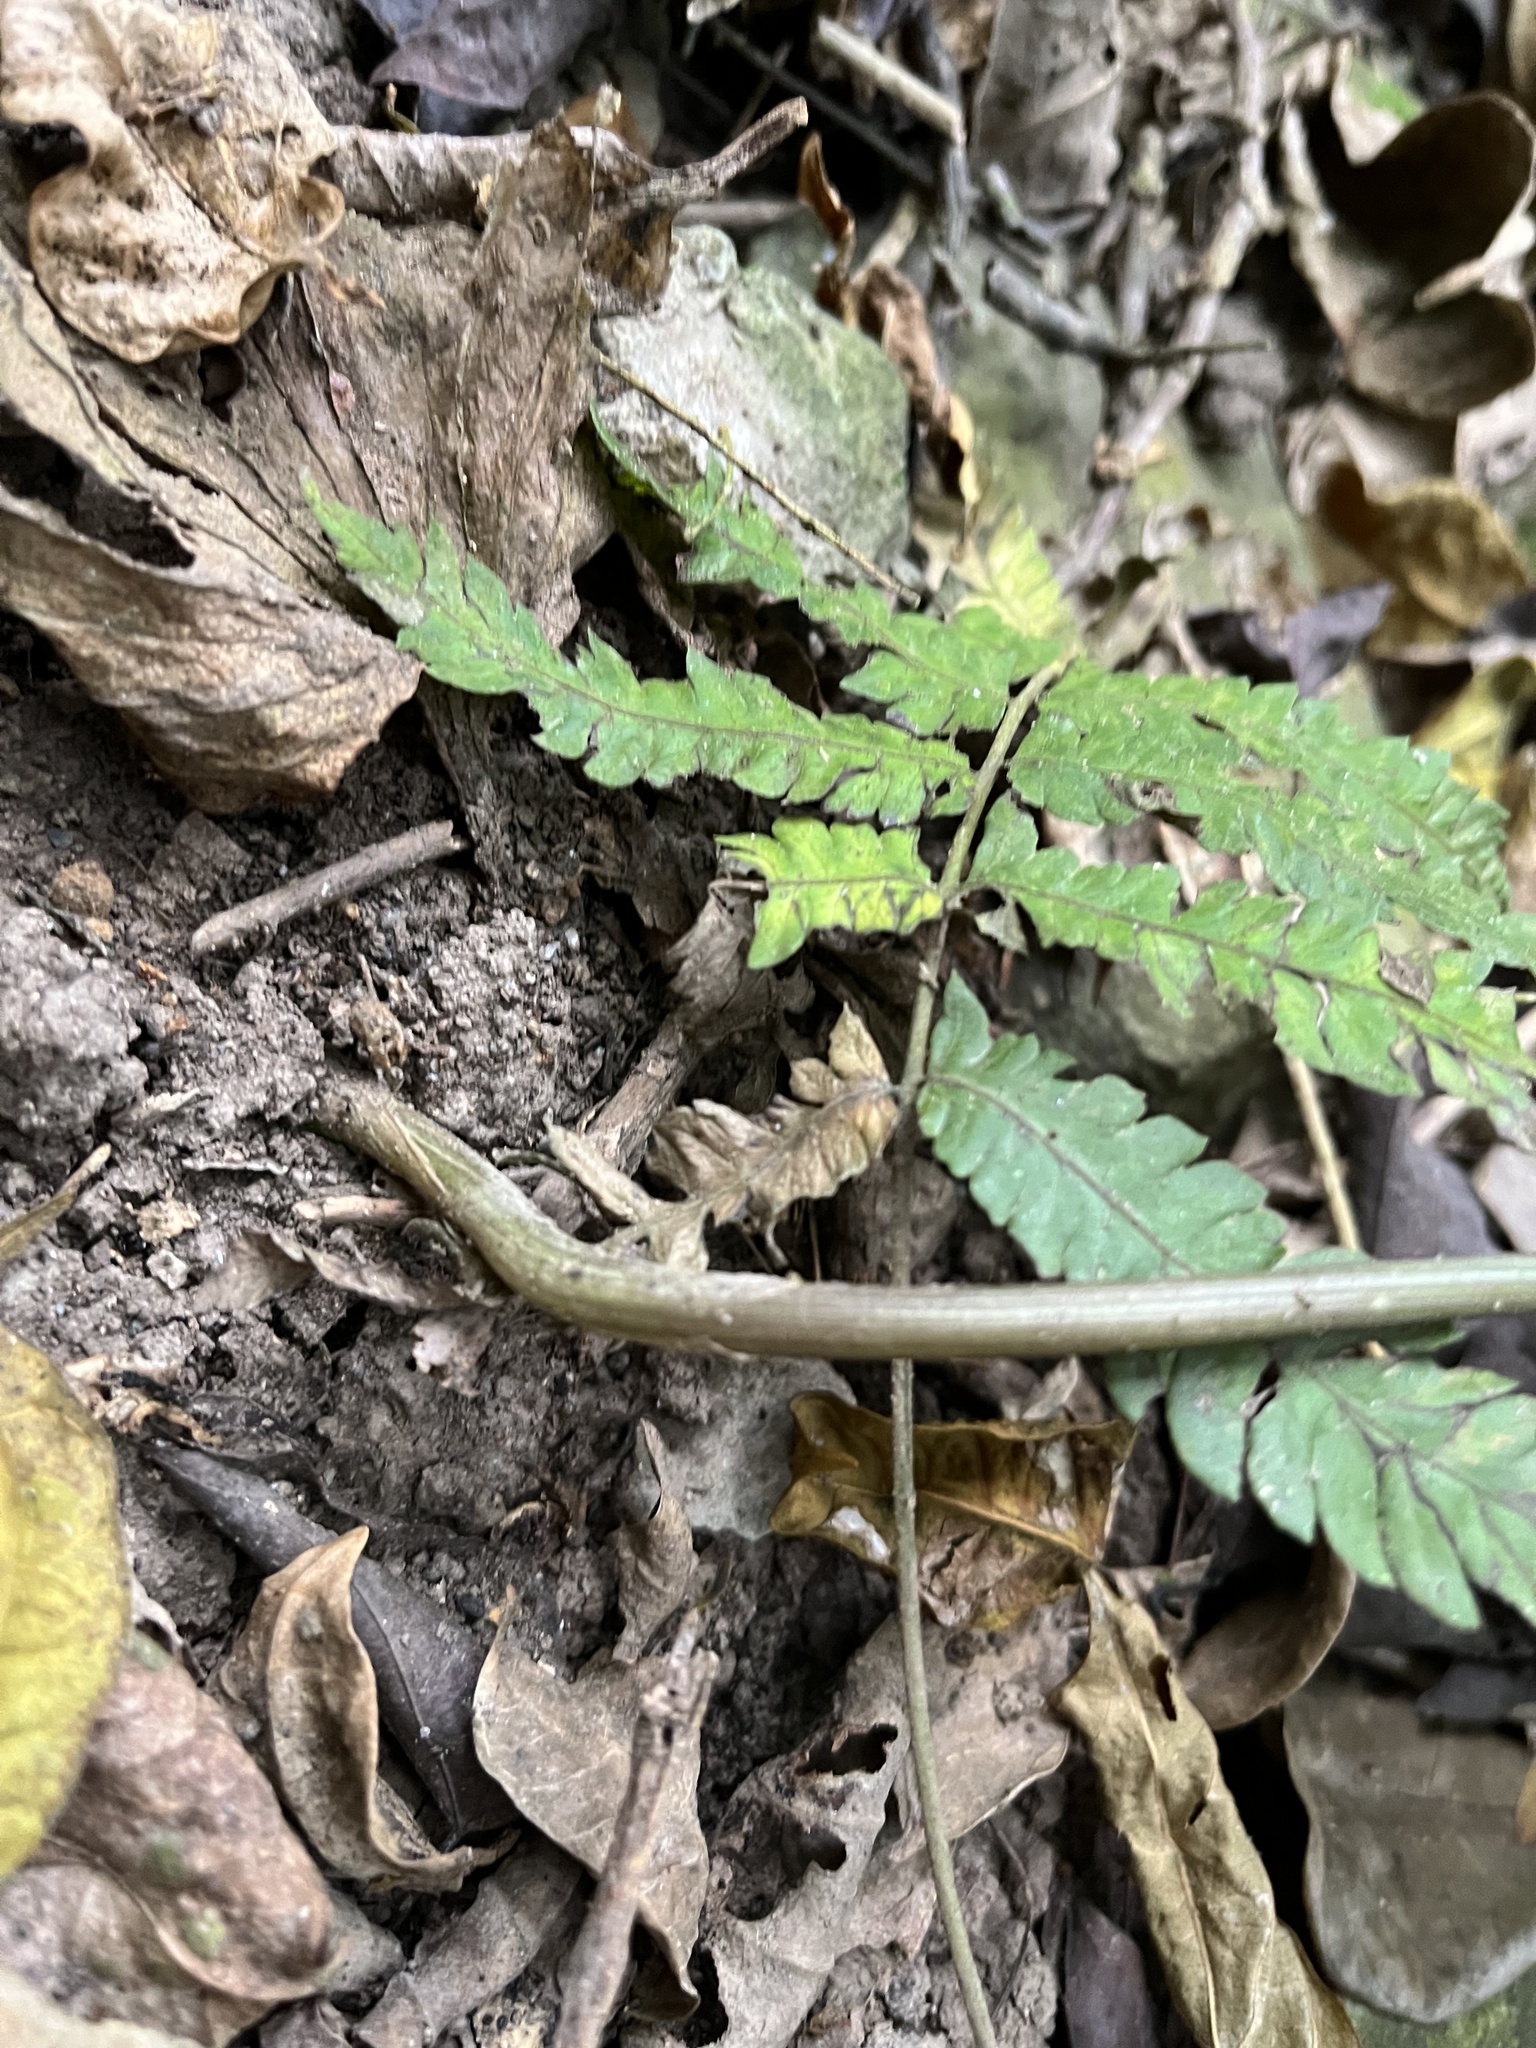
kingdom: Plantae
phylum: Tracheophyta
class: Liliopsida
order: Asparagales
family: Orchidaceae
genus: Nervilia
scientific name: Nervilia concolor
